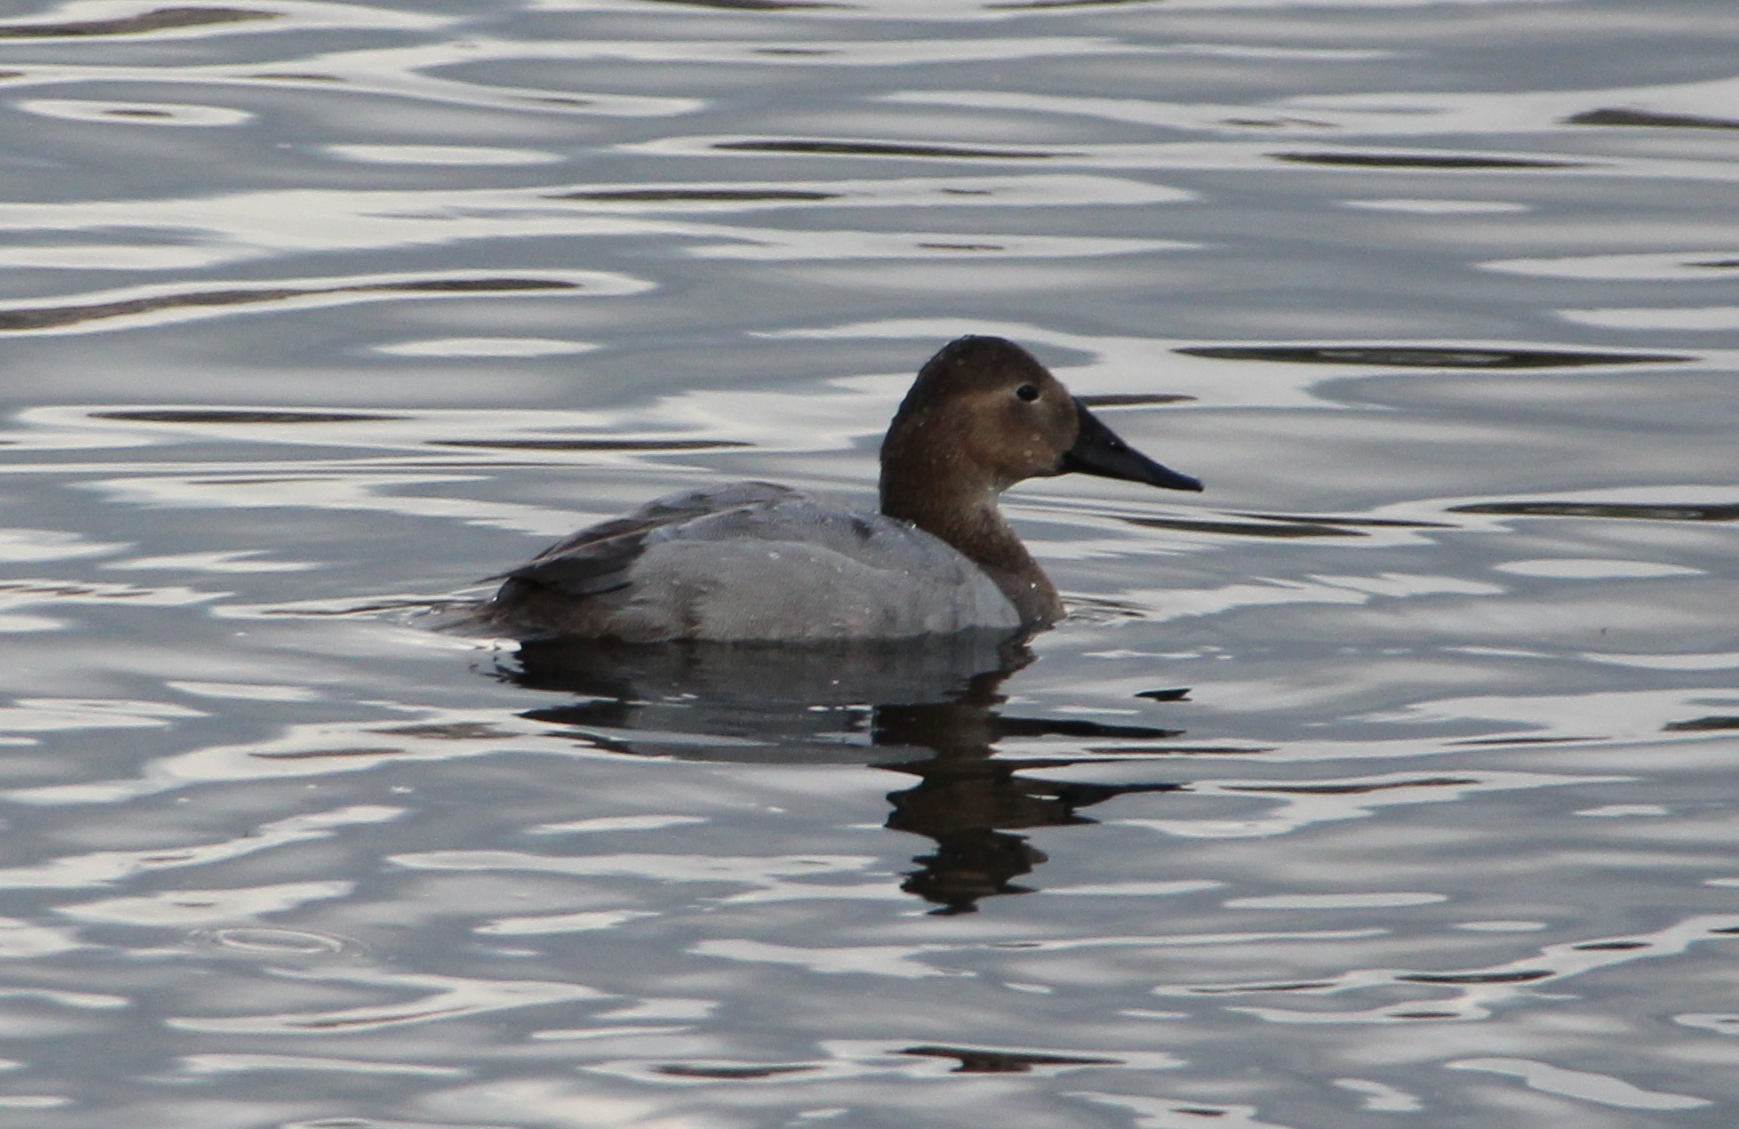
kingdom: Animalia
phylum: Chordata
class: Aves
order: Anseriformes
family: Anatidae
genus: Aythya
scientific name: Aythya valisineria
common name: Canvasback
